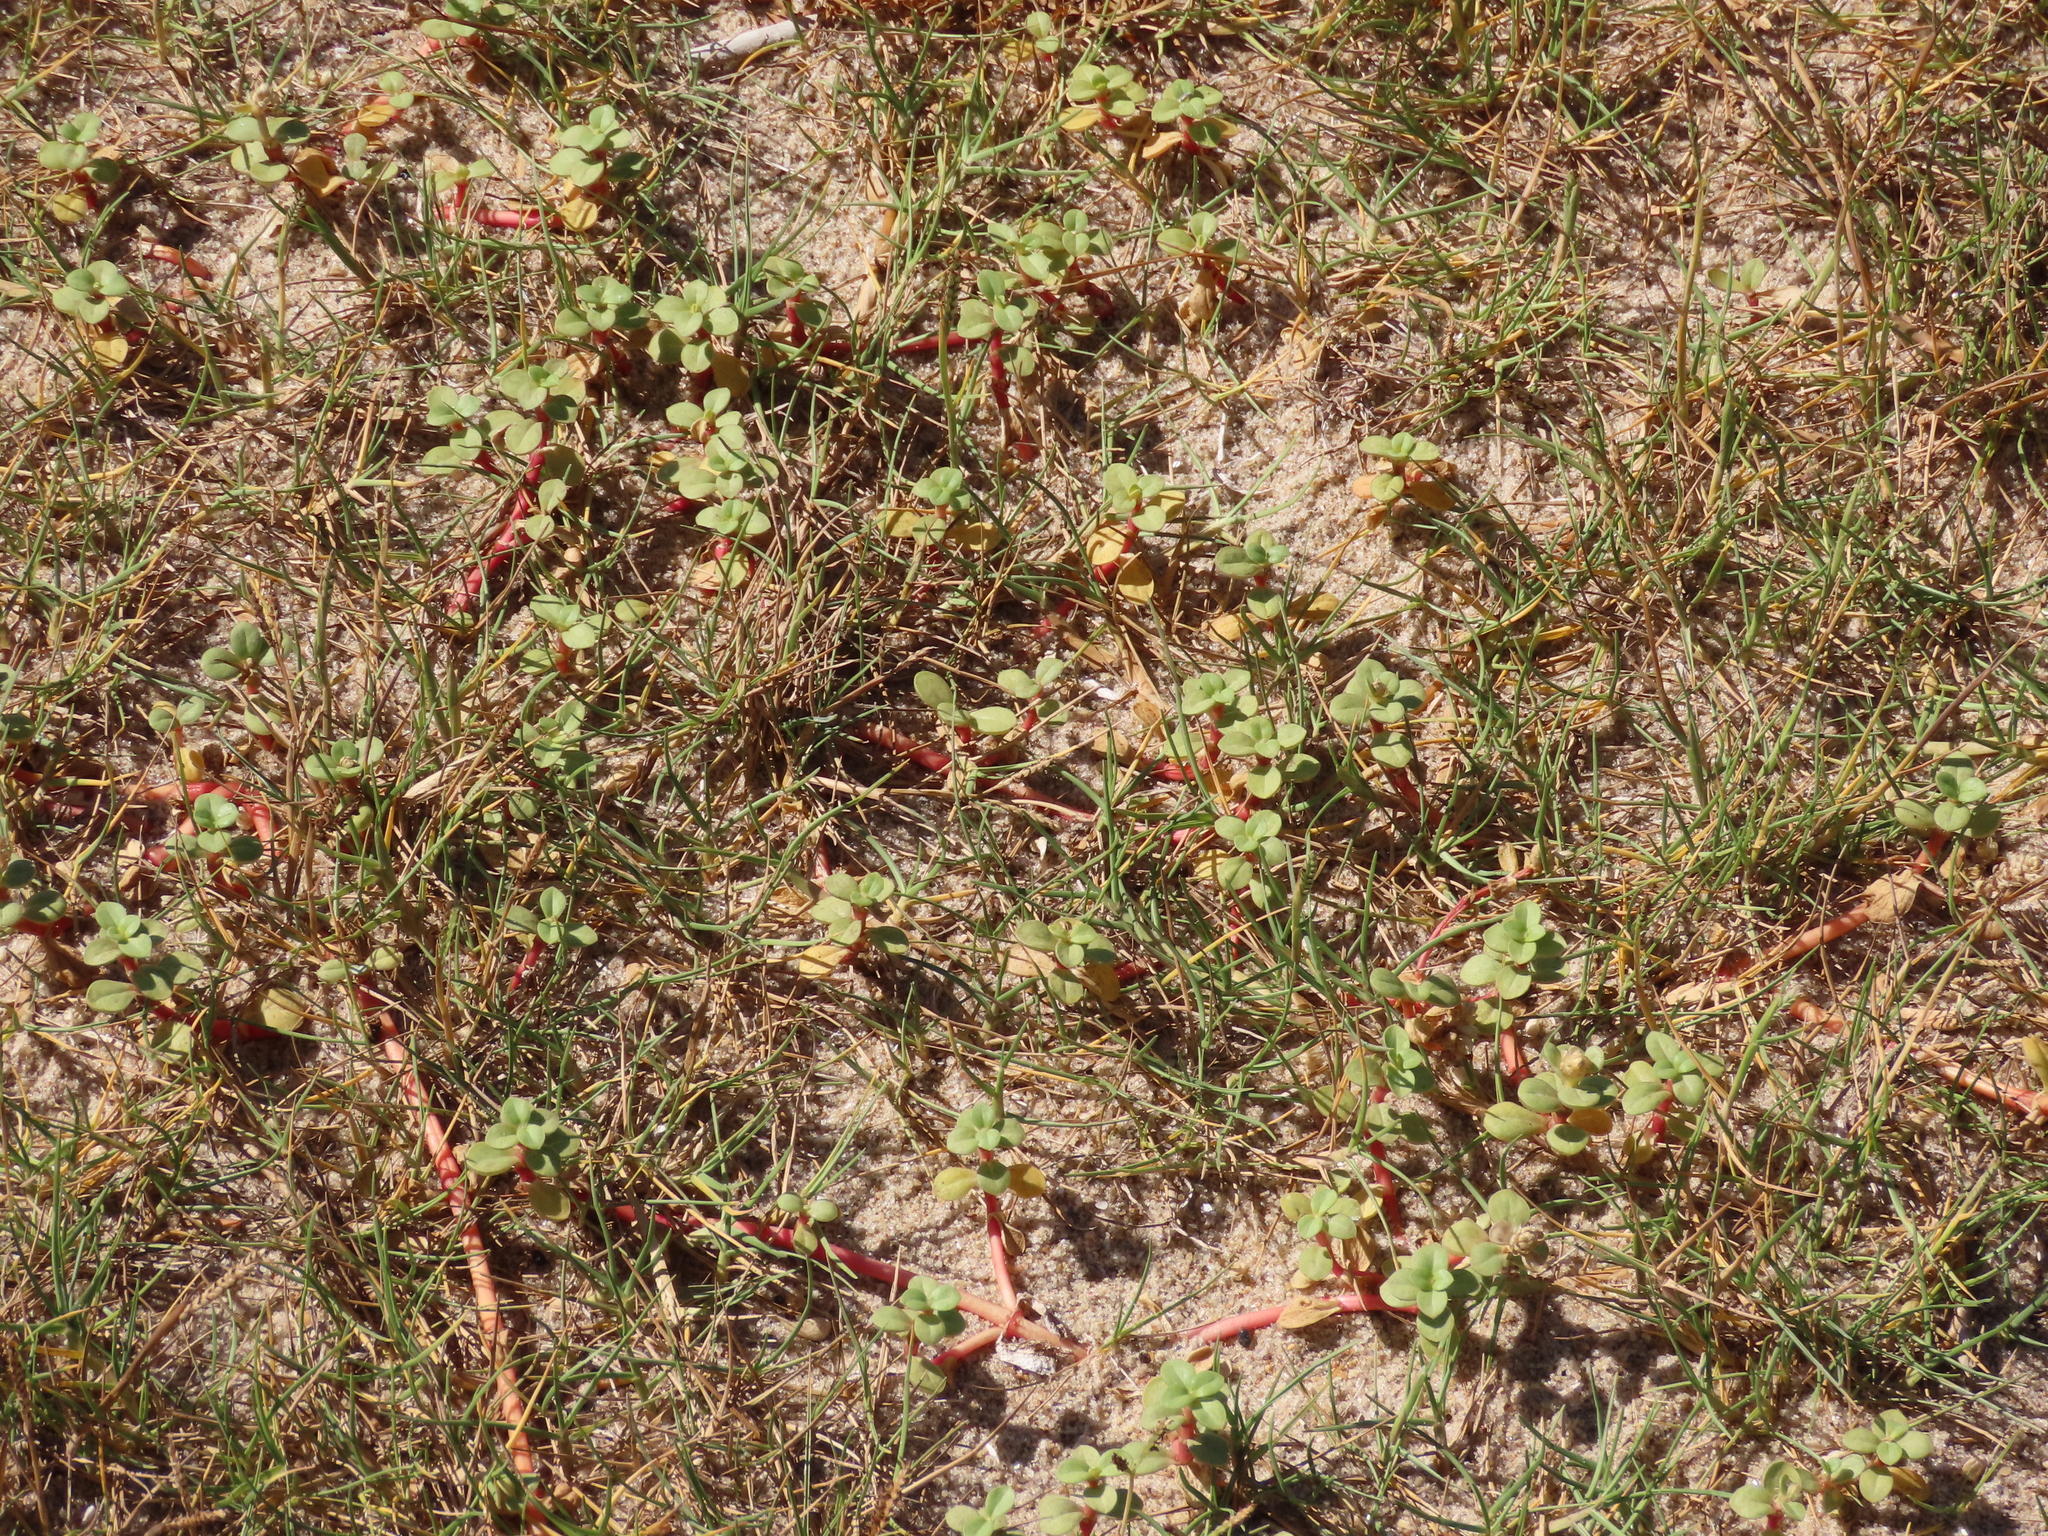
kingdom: Plantae
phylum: Tracheophyta
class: Magnoliopsida
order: Caryophyllales
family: Amaranthaceae
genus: Gomphrena
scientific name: Gomphrena portulacoides
